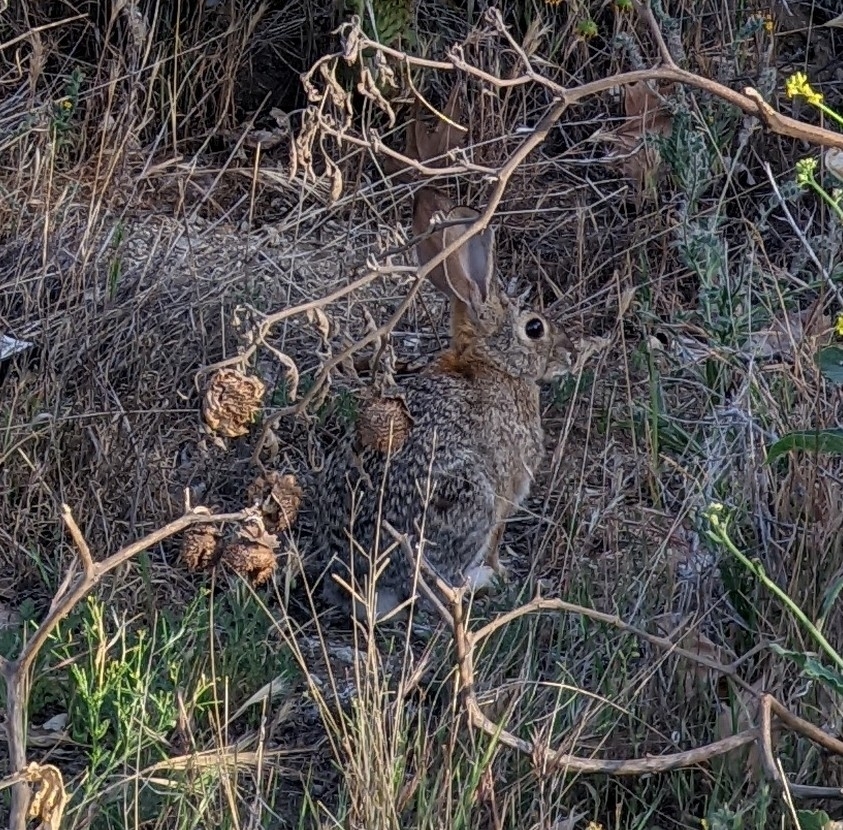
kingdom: Animalia
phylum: Chordata
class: Mammalia
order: Lagomorpha
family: Leporidae
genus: Sylvilagus
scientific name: Sylvilagus audubonii
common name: Desert cottontail
